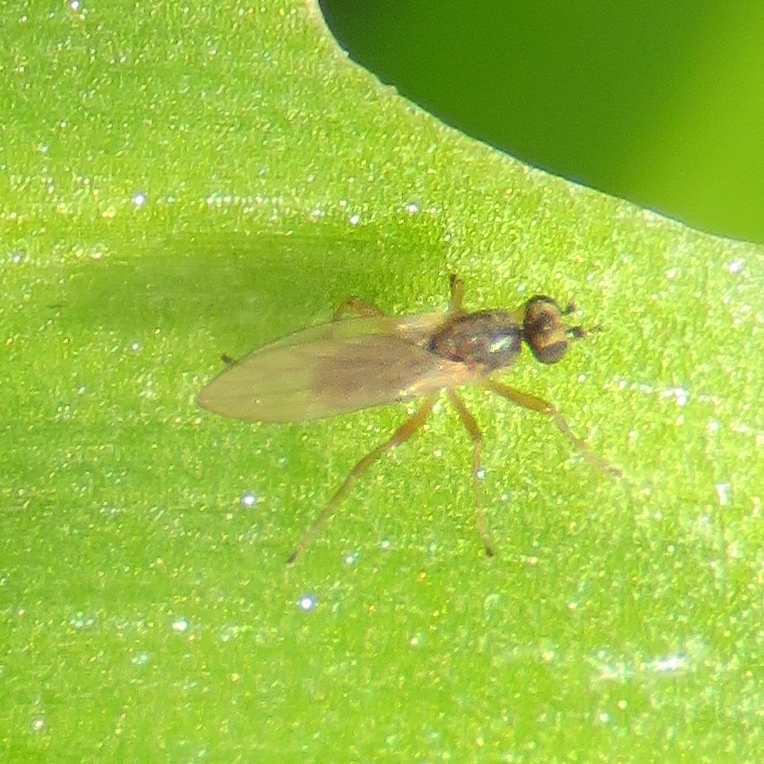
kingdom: Animalia
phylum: Arthropoda
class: Insecta
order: Diptera
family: Lonchopteridae
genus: Lonchoptera
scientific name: Lonchoptera
